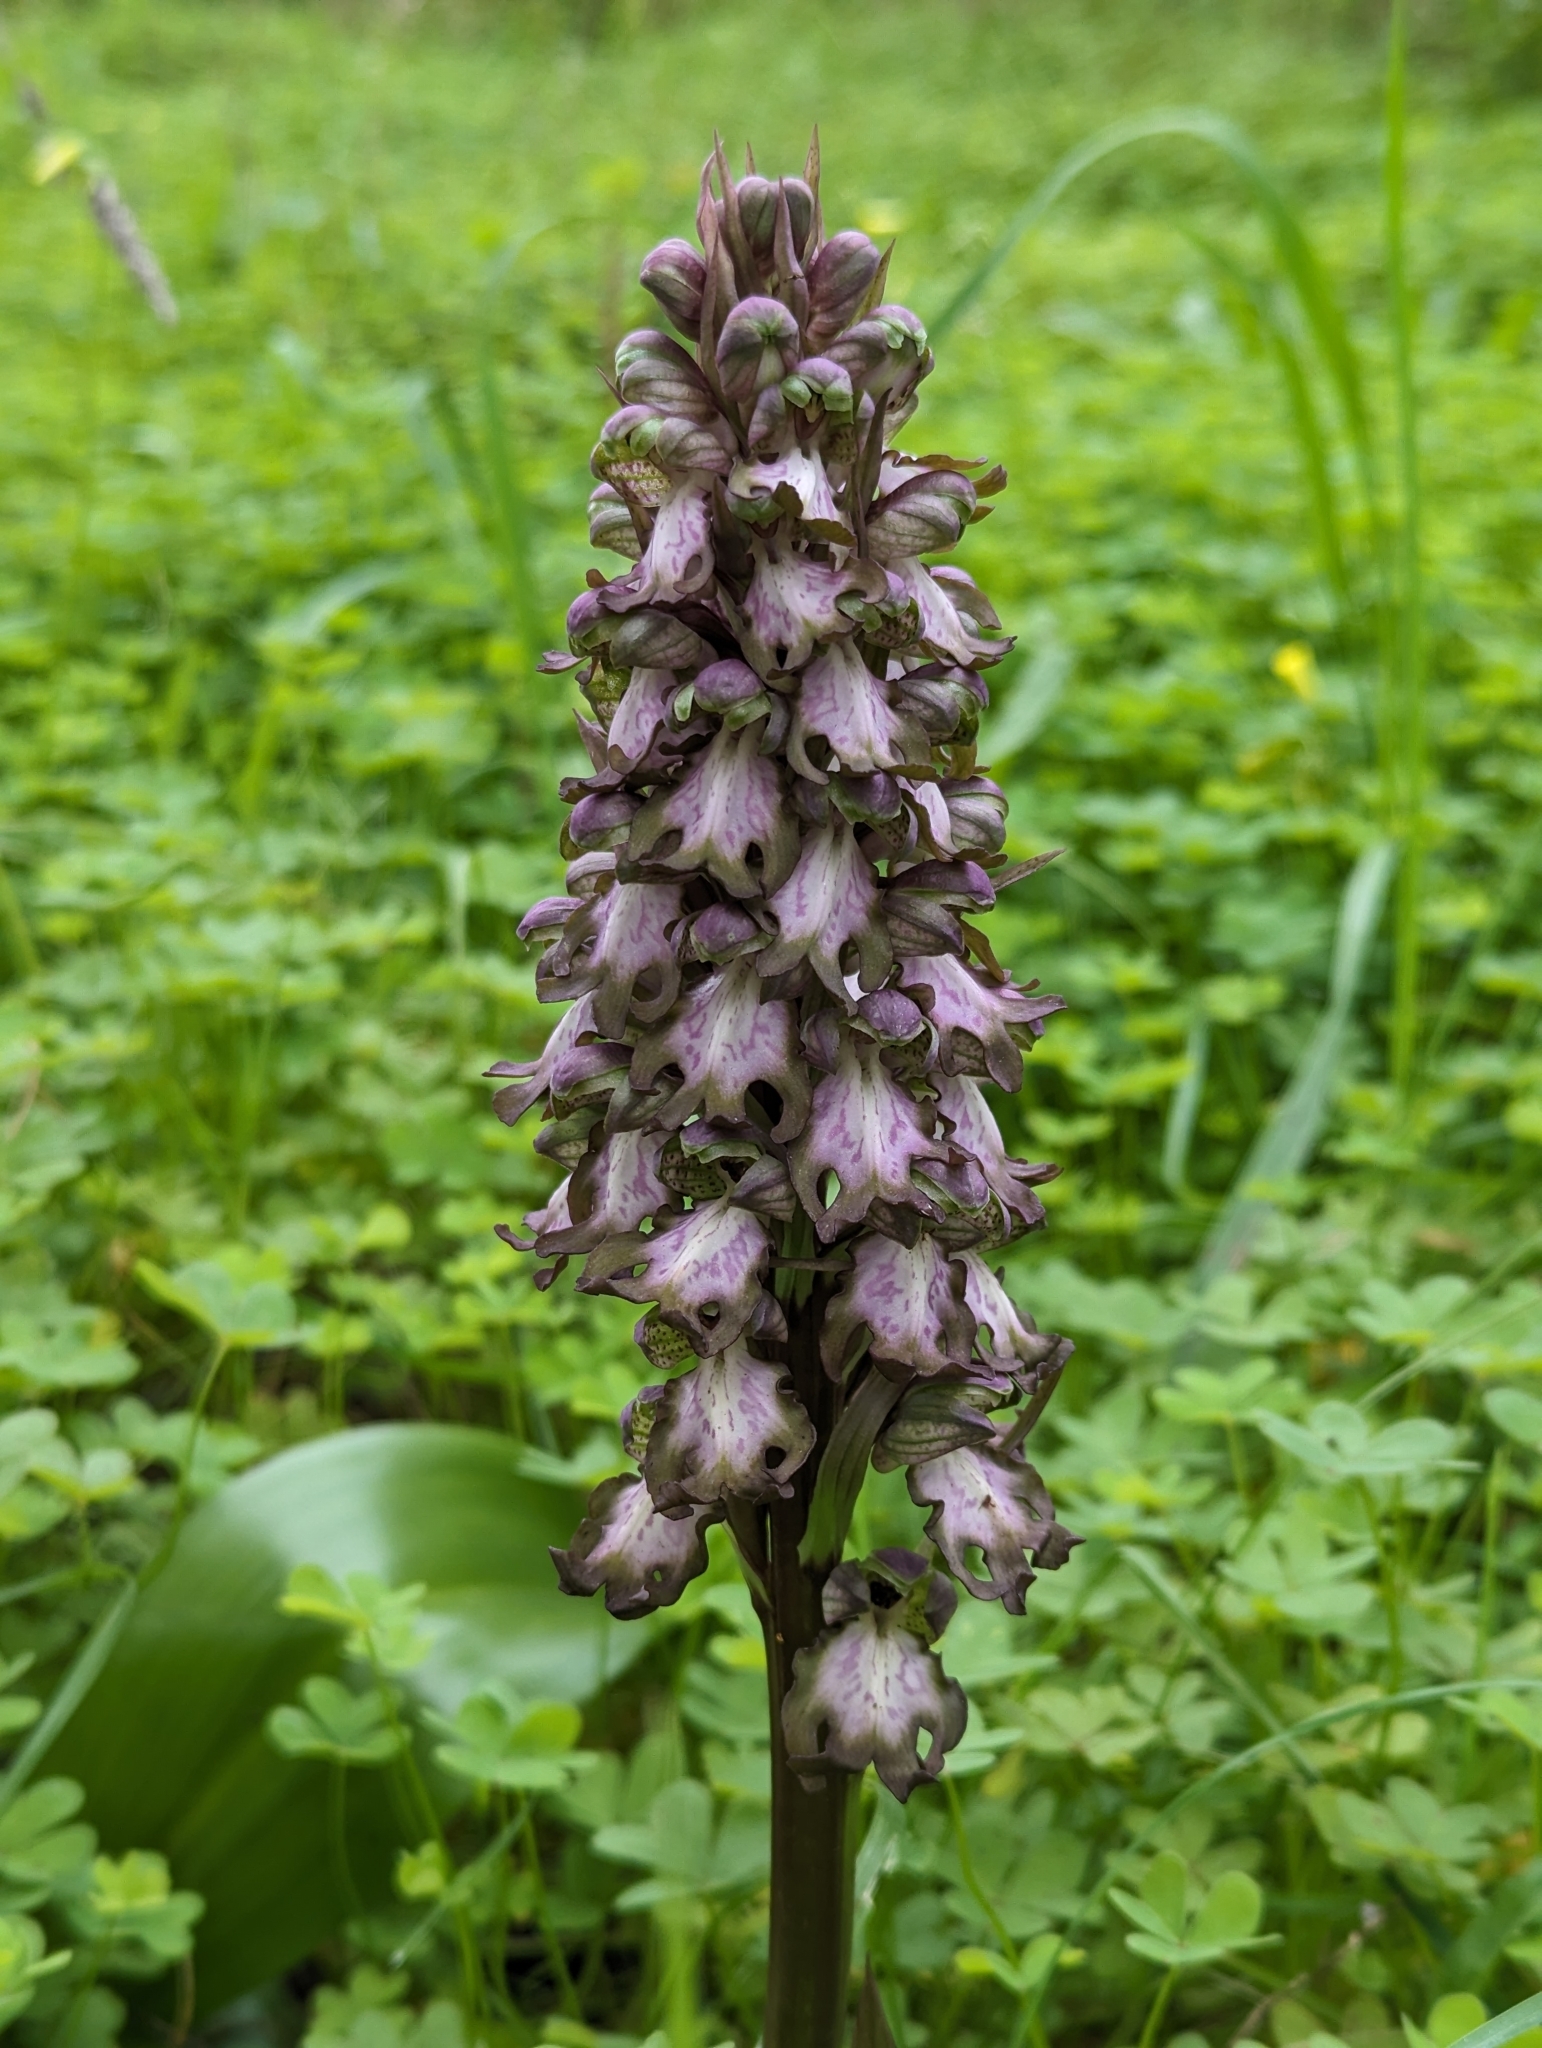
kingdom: Plantae
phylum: Tracheophyta
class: Liliopsida
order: Asparagales
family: Orchidaceae
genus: Himantoglossum
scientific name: Himantoglossum robertianum
